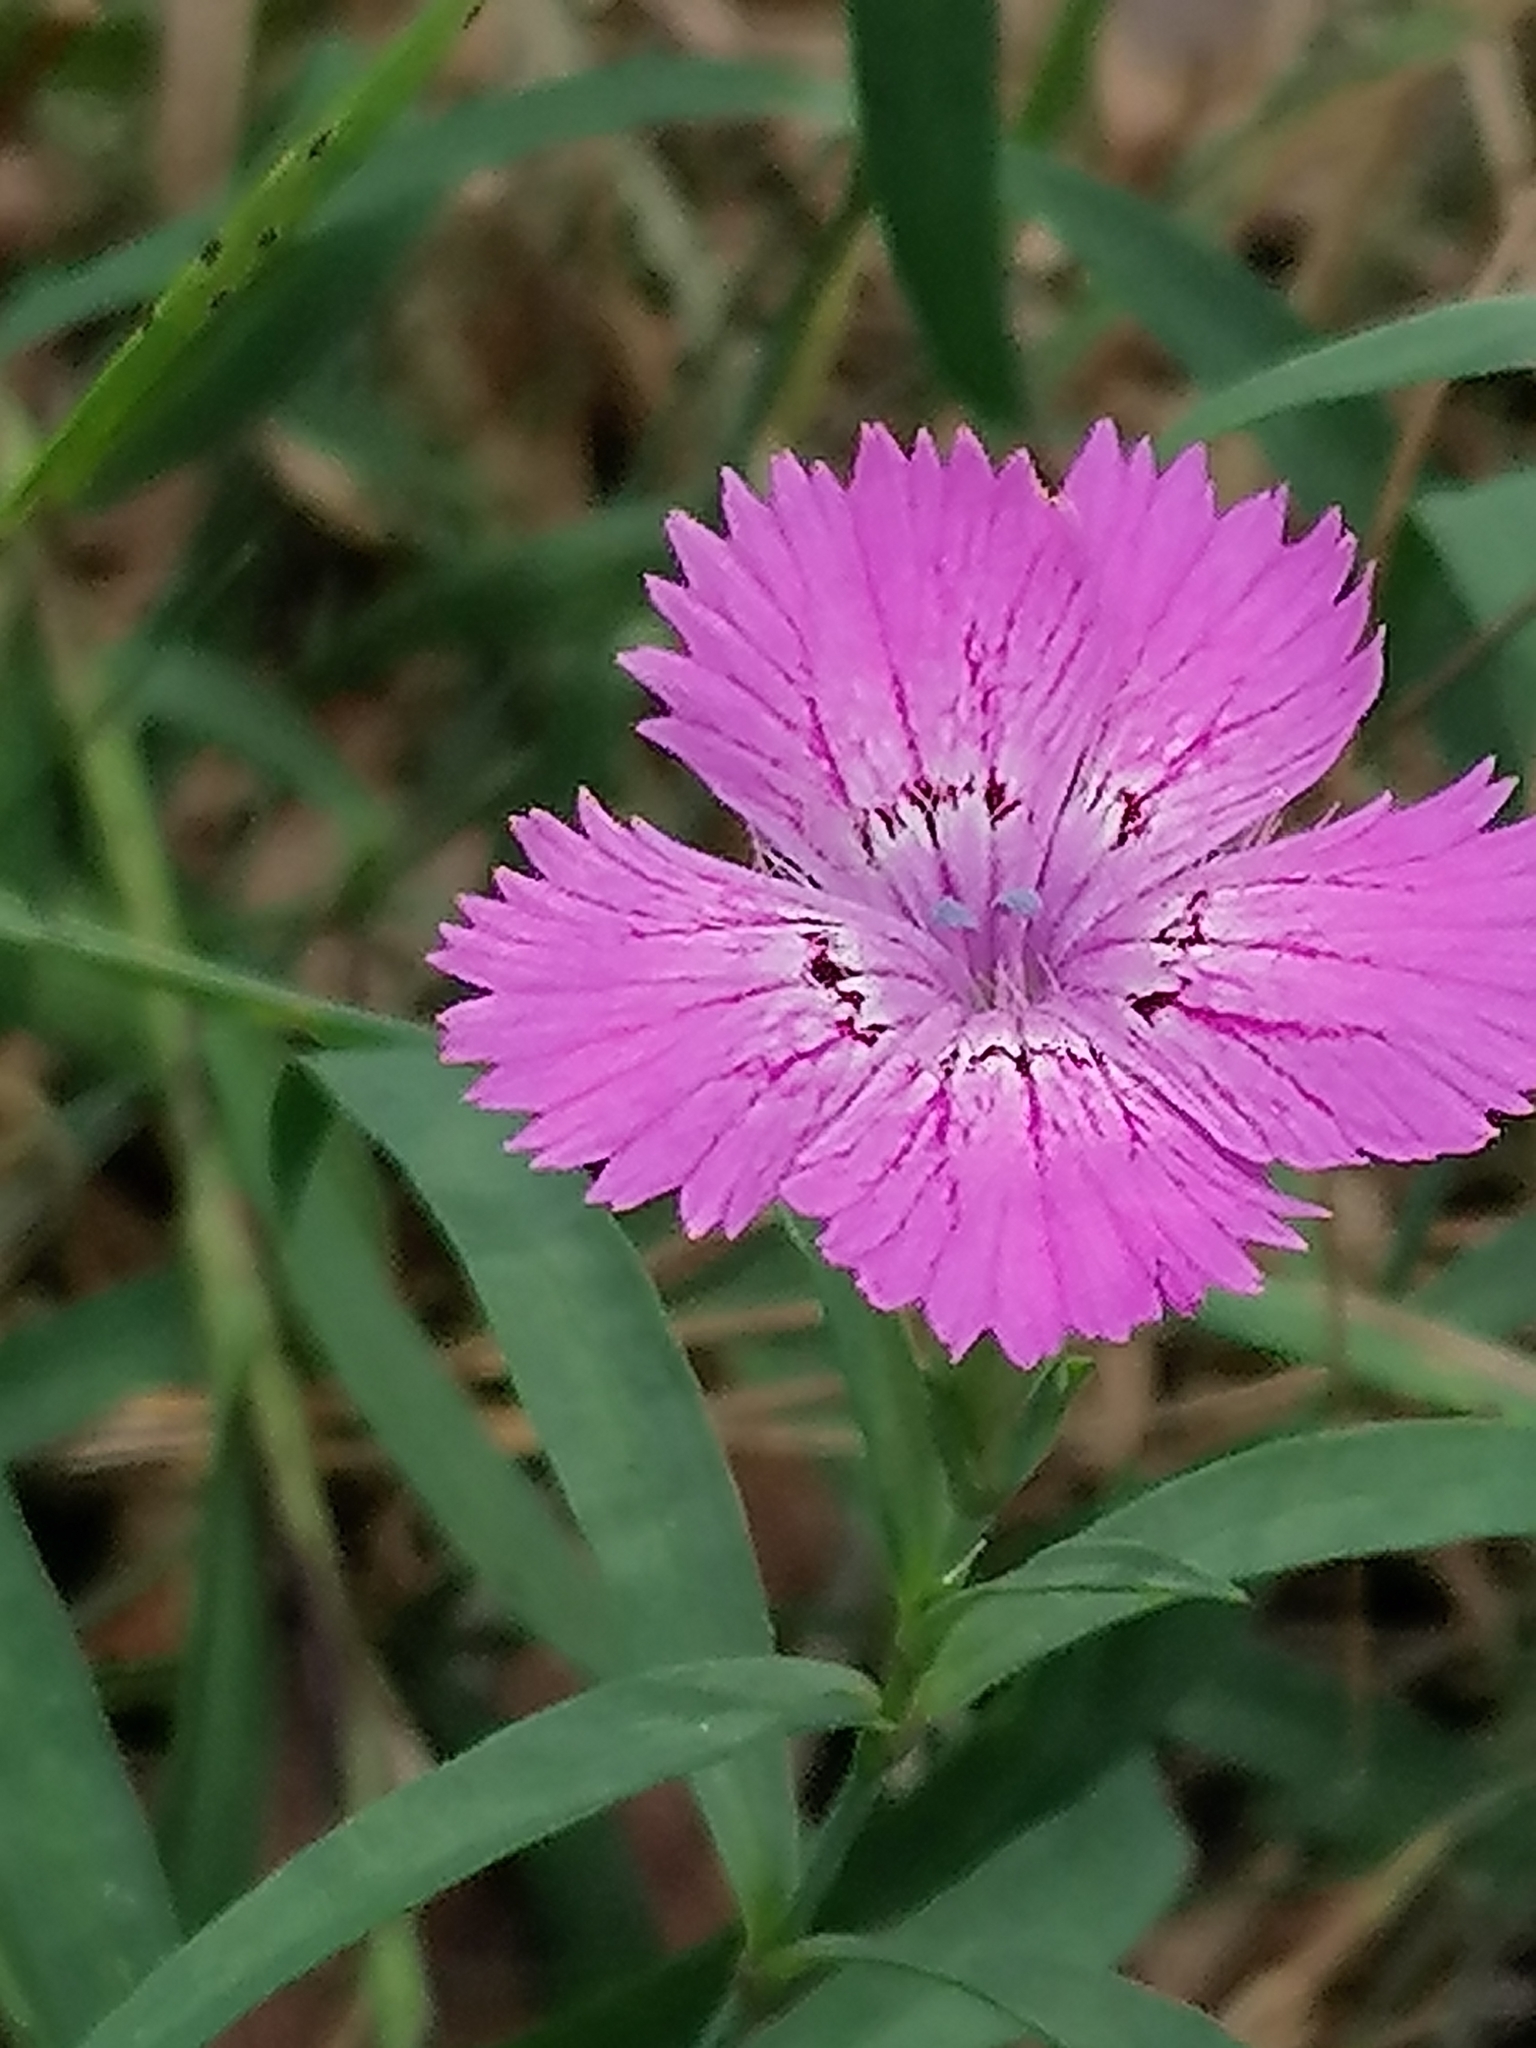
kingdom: Plantae
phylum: Tracheophyta
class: Magnoliopsida
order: Caryophyllales
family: Caryophyllaceae
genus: Dianthus
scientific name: Dianthus chinensis
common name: Rainbow pink
